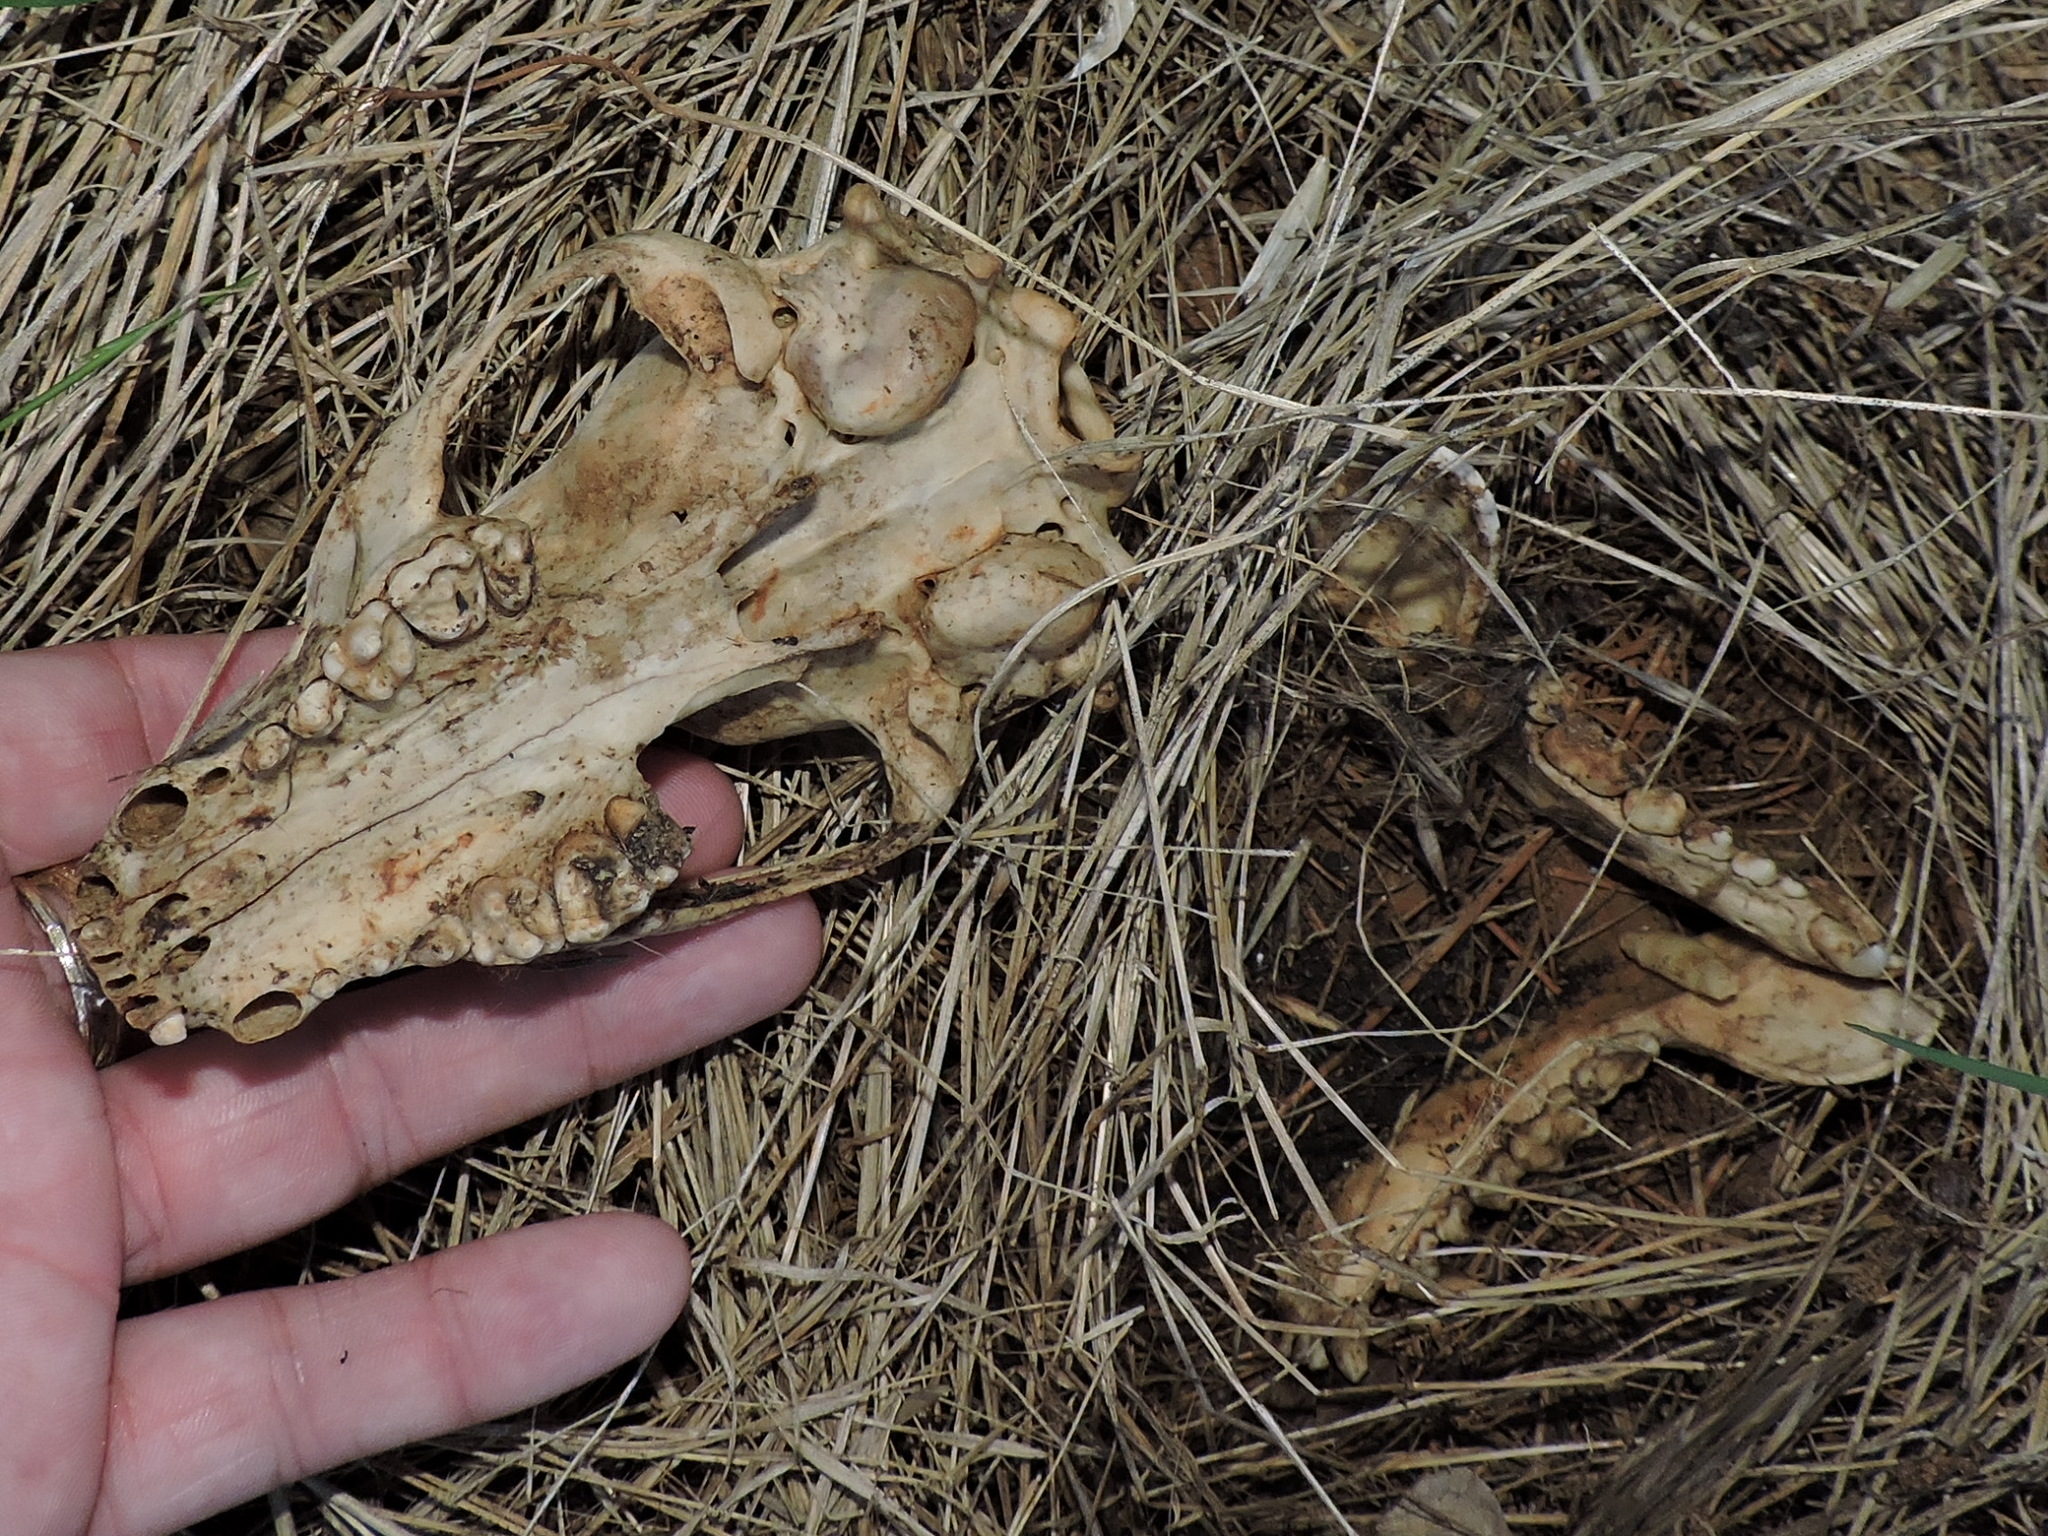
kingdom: Animalia
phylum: Chordata
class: Mammalia
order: Carnivora
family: Procyonidae
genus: Procyon
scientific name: Procyon lotor
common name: Raccoon
